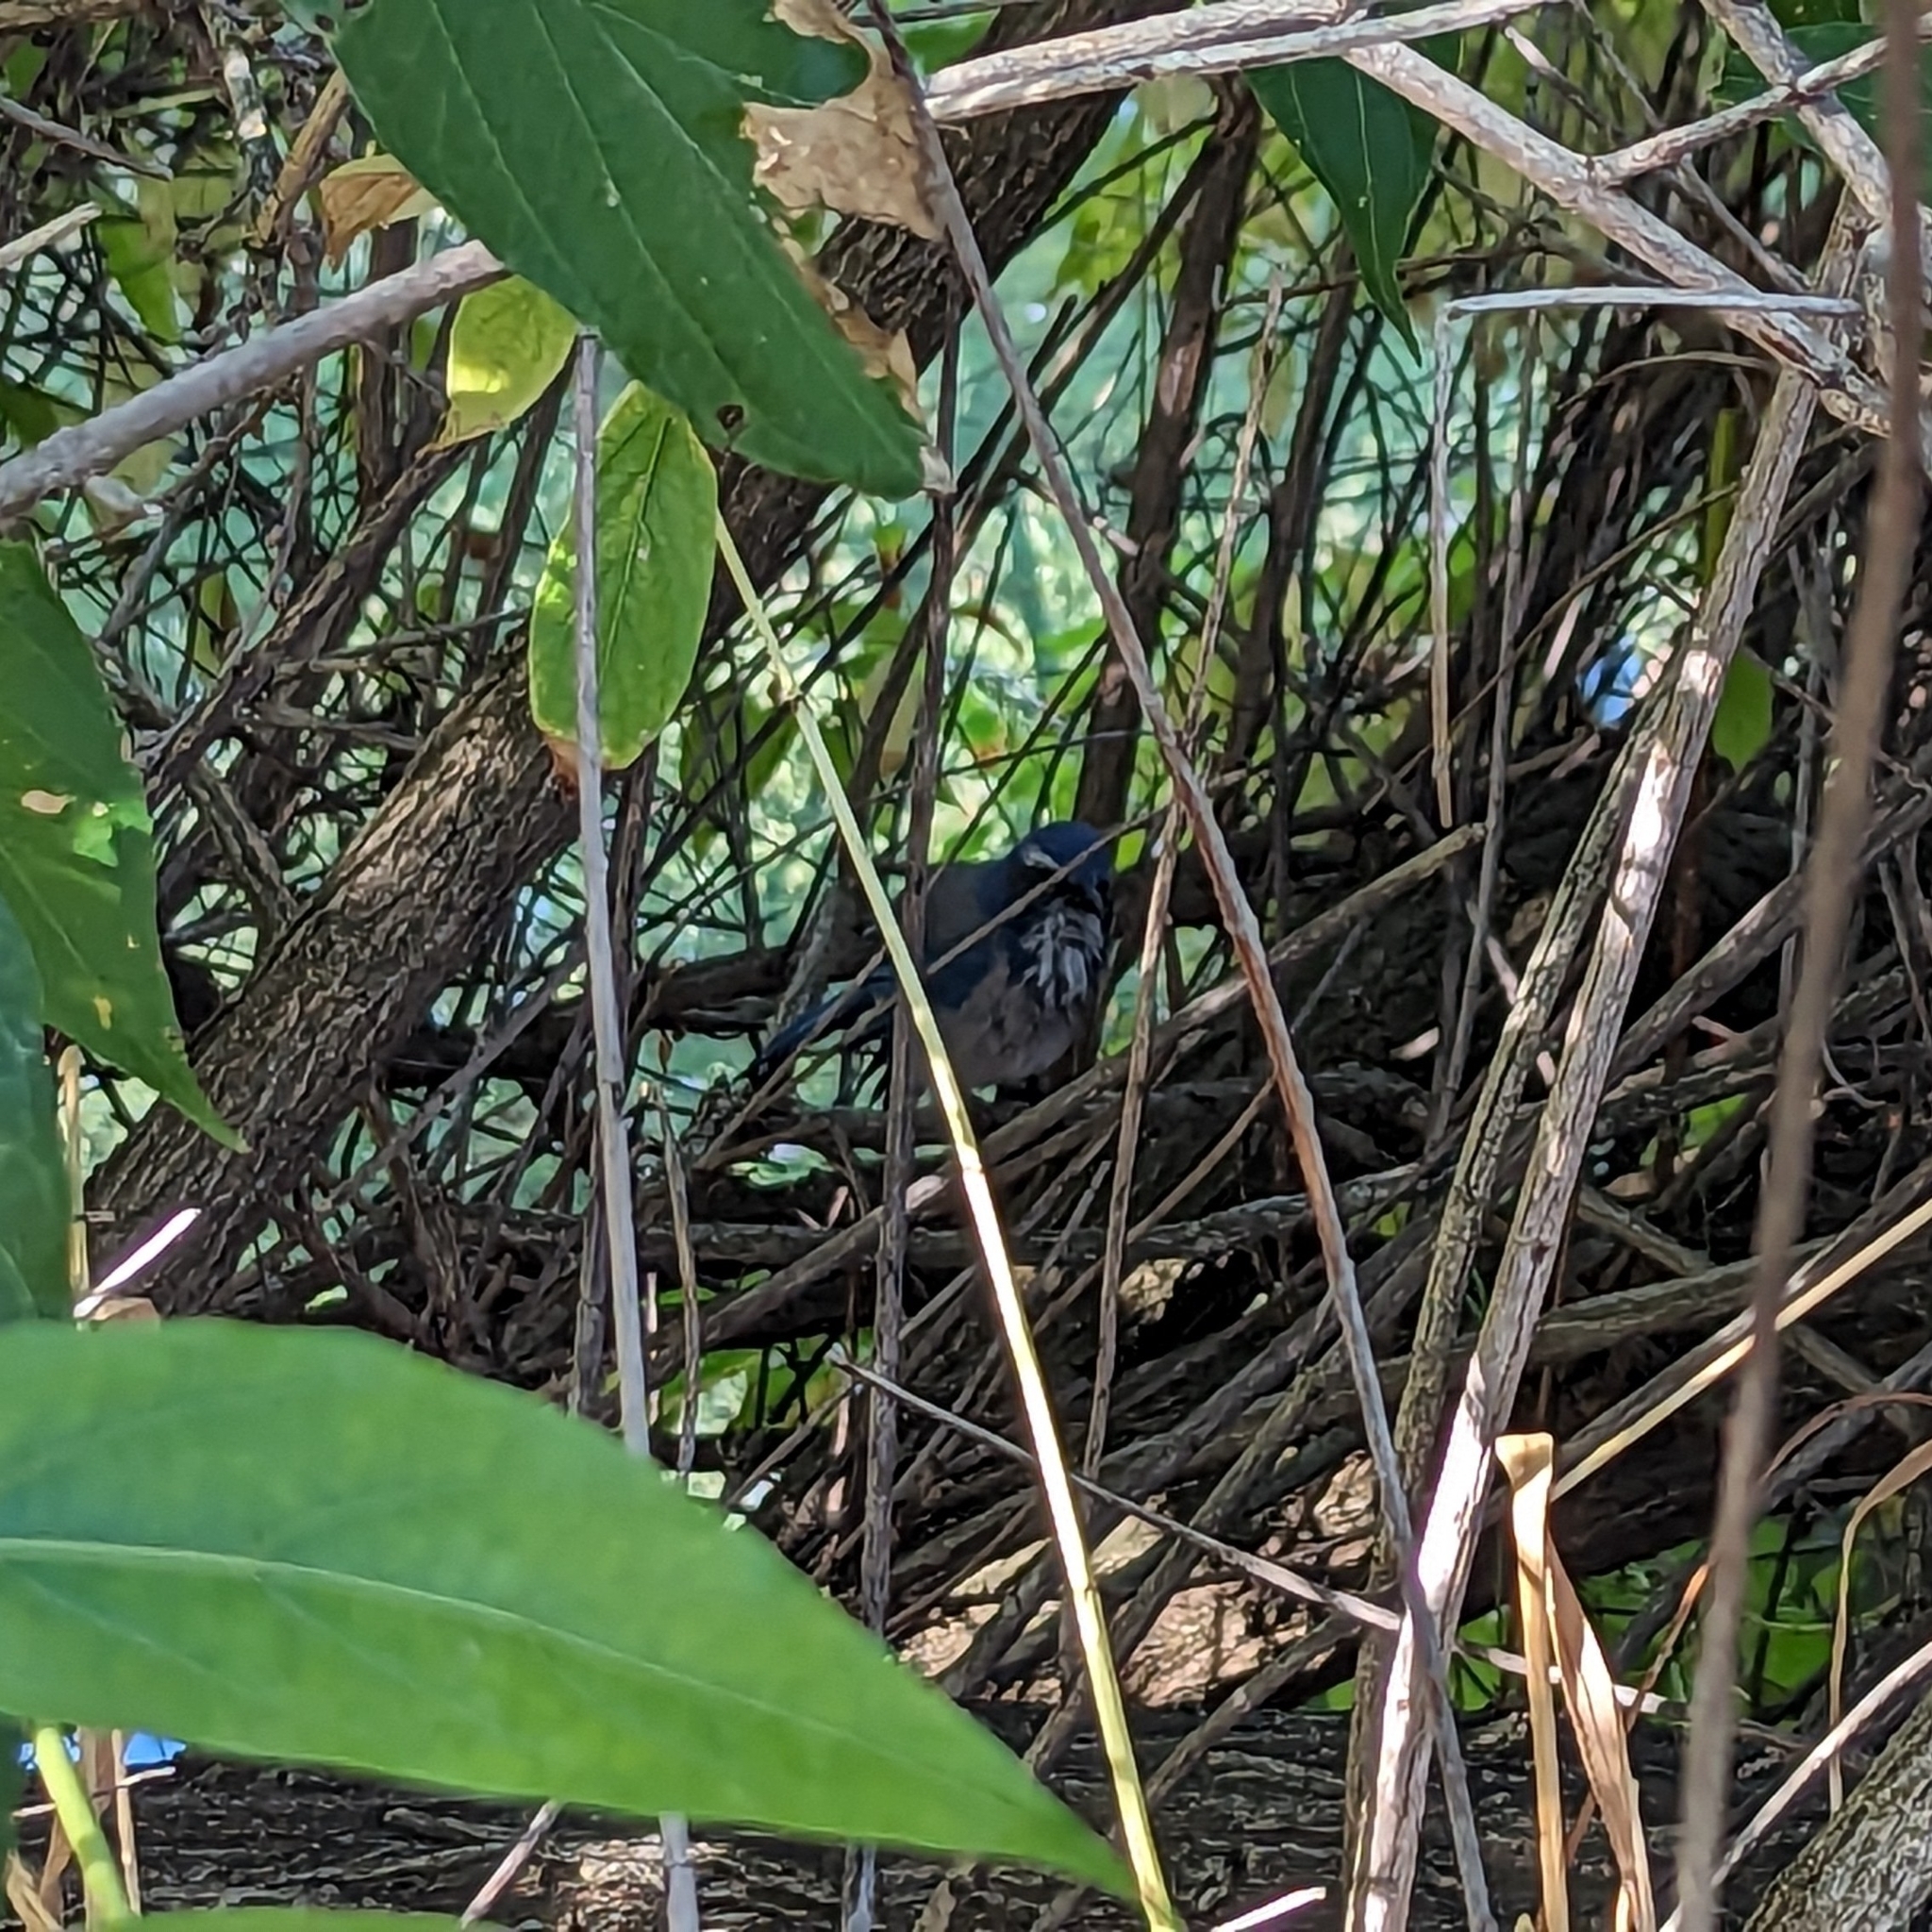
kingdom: Animalia
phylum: Chordata
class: Aves
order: Passeriformes
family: Corvidae
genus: Aphelocoma
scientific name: Aphelocoma californica
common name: California scrub-jay
